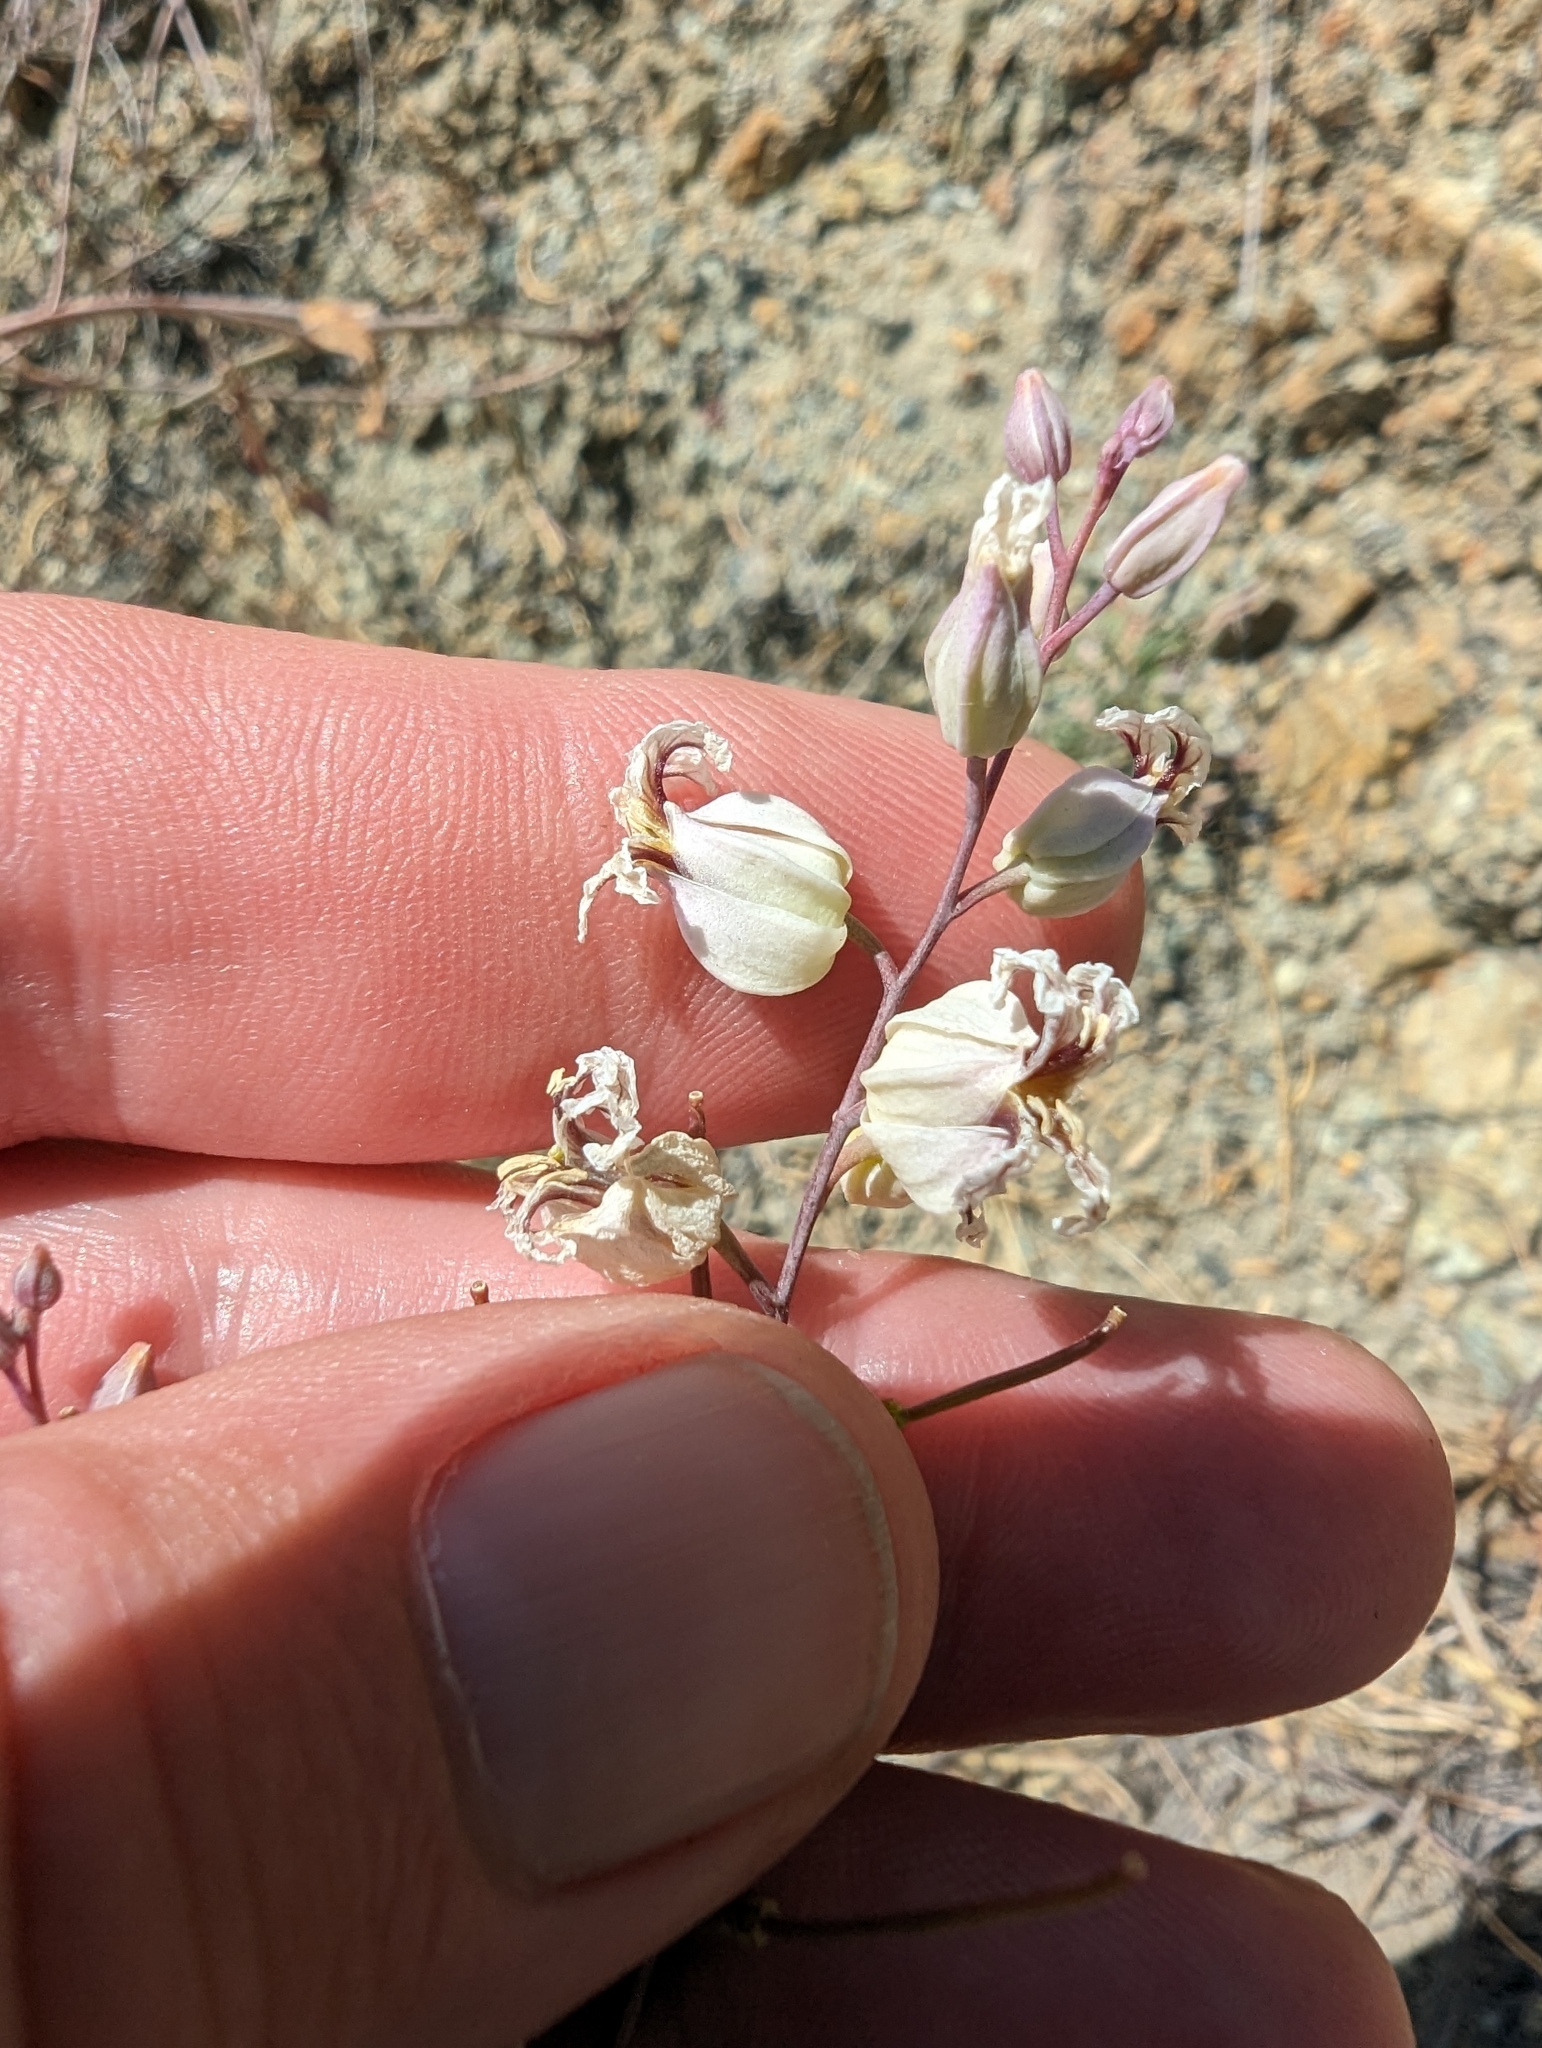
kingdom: Plantae
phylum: Tracheophyta
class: Magnoliopsida
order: Brassicales
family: Brassicaceae
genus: Streptanthus
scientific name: Streptanthus glandulosus
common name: Jewel-flower
